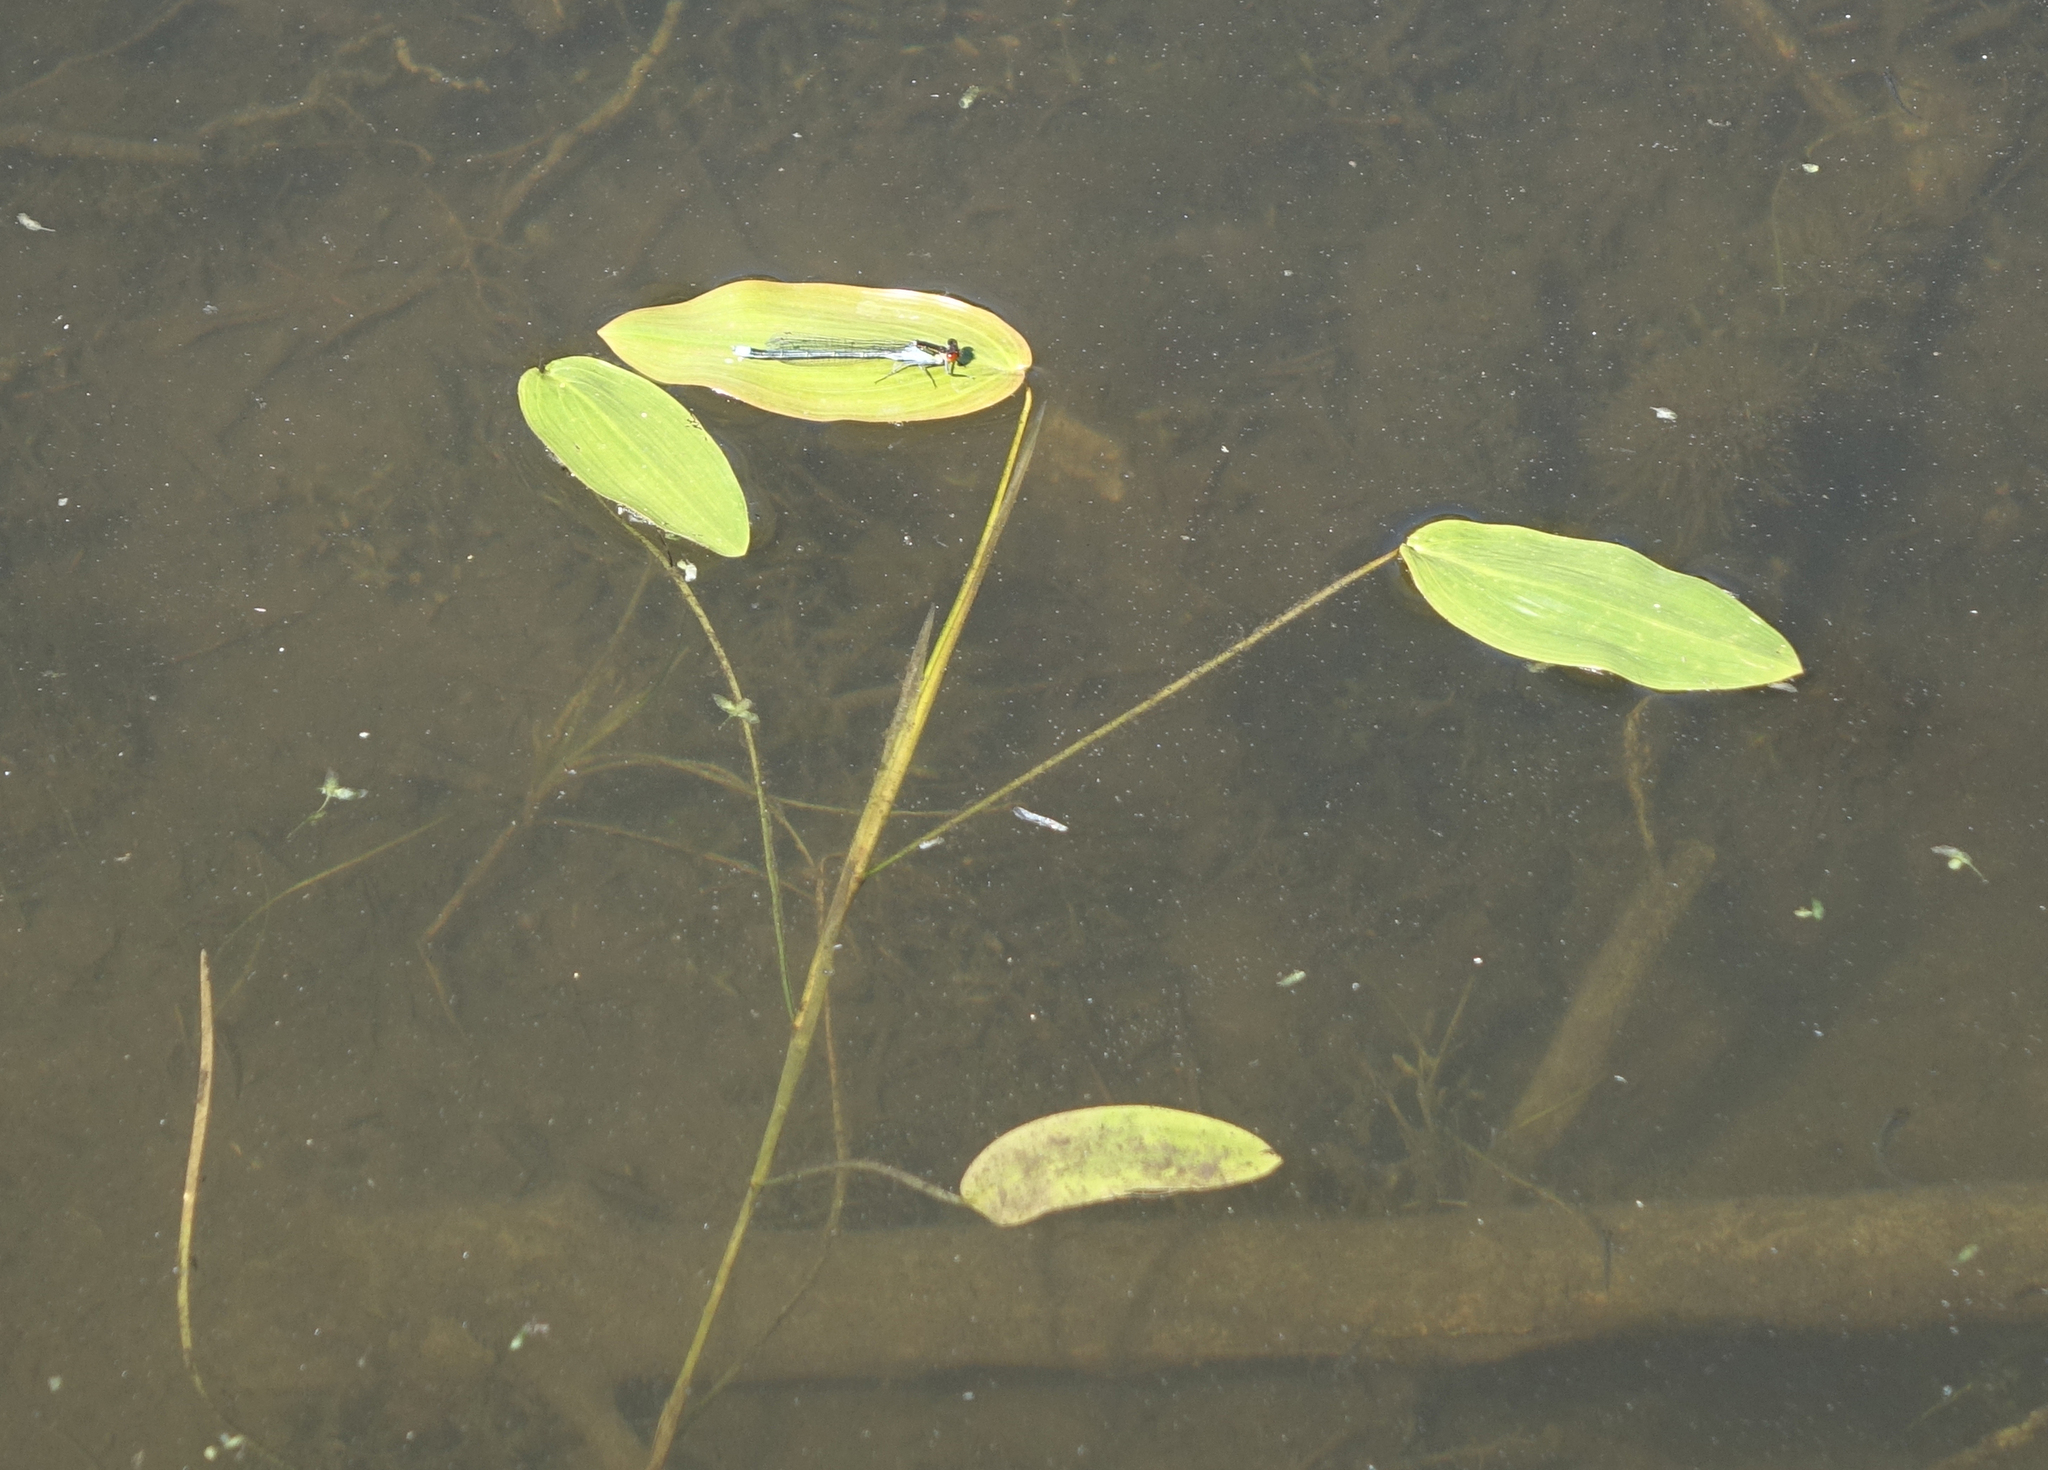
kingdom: Animalia
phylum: Arthropoda
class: Insecta
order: Odonata
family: Coenagrionidae
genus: Erythromma
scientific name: Erythromma najas
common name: Red-eyed damselfly
